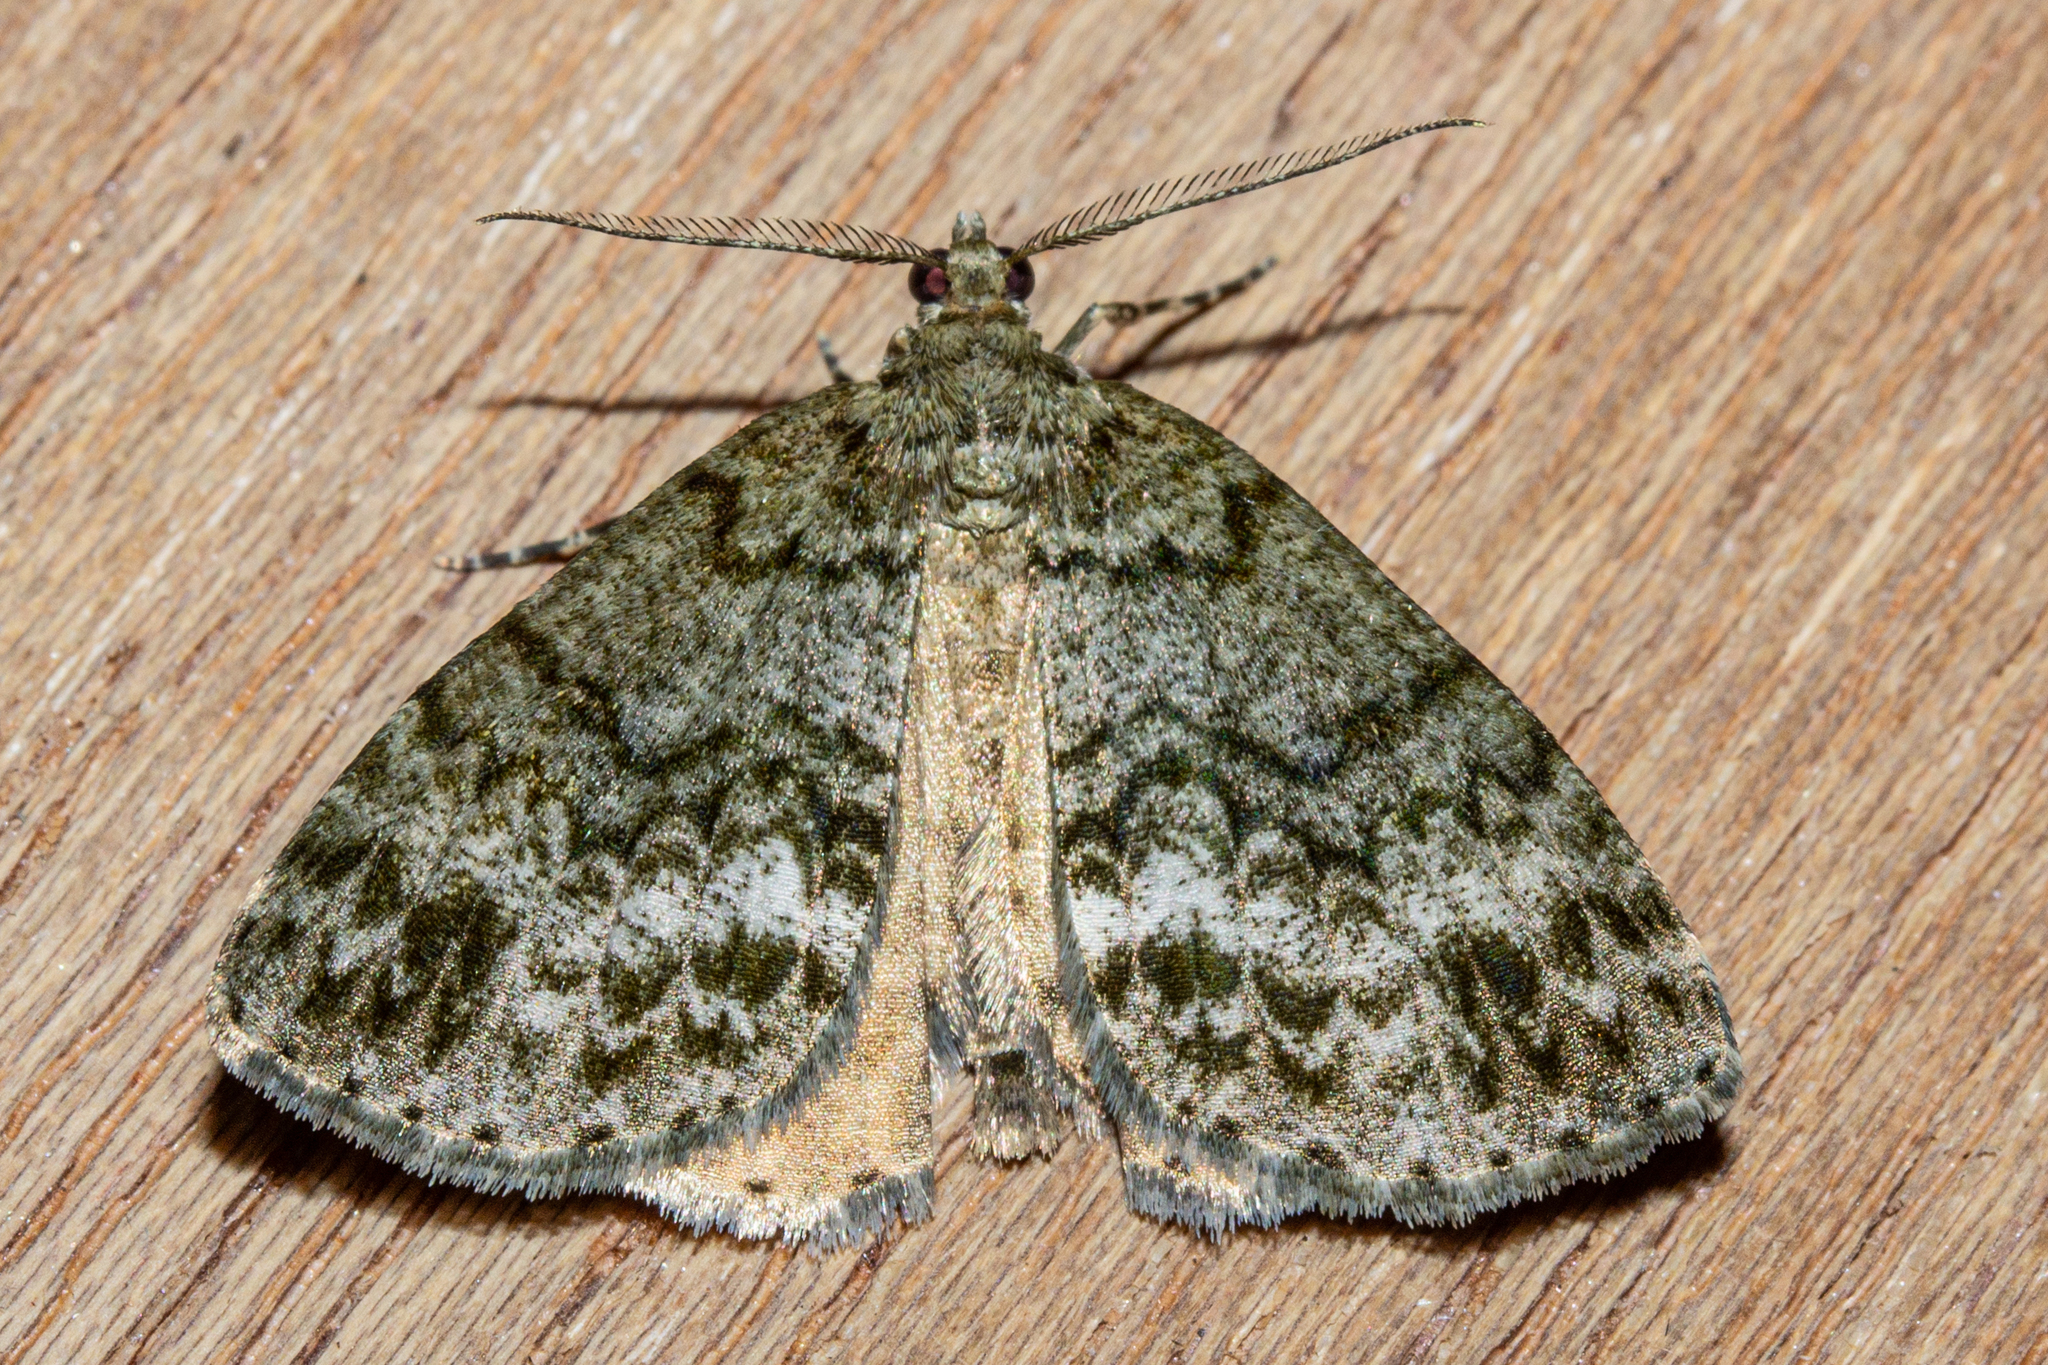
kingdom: Animalia
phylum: Arthropoda
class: Insecta
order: Lepidoptera
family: Geometridae
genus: Pseudocoremia
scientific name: Pseudocoremia indistincta
